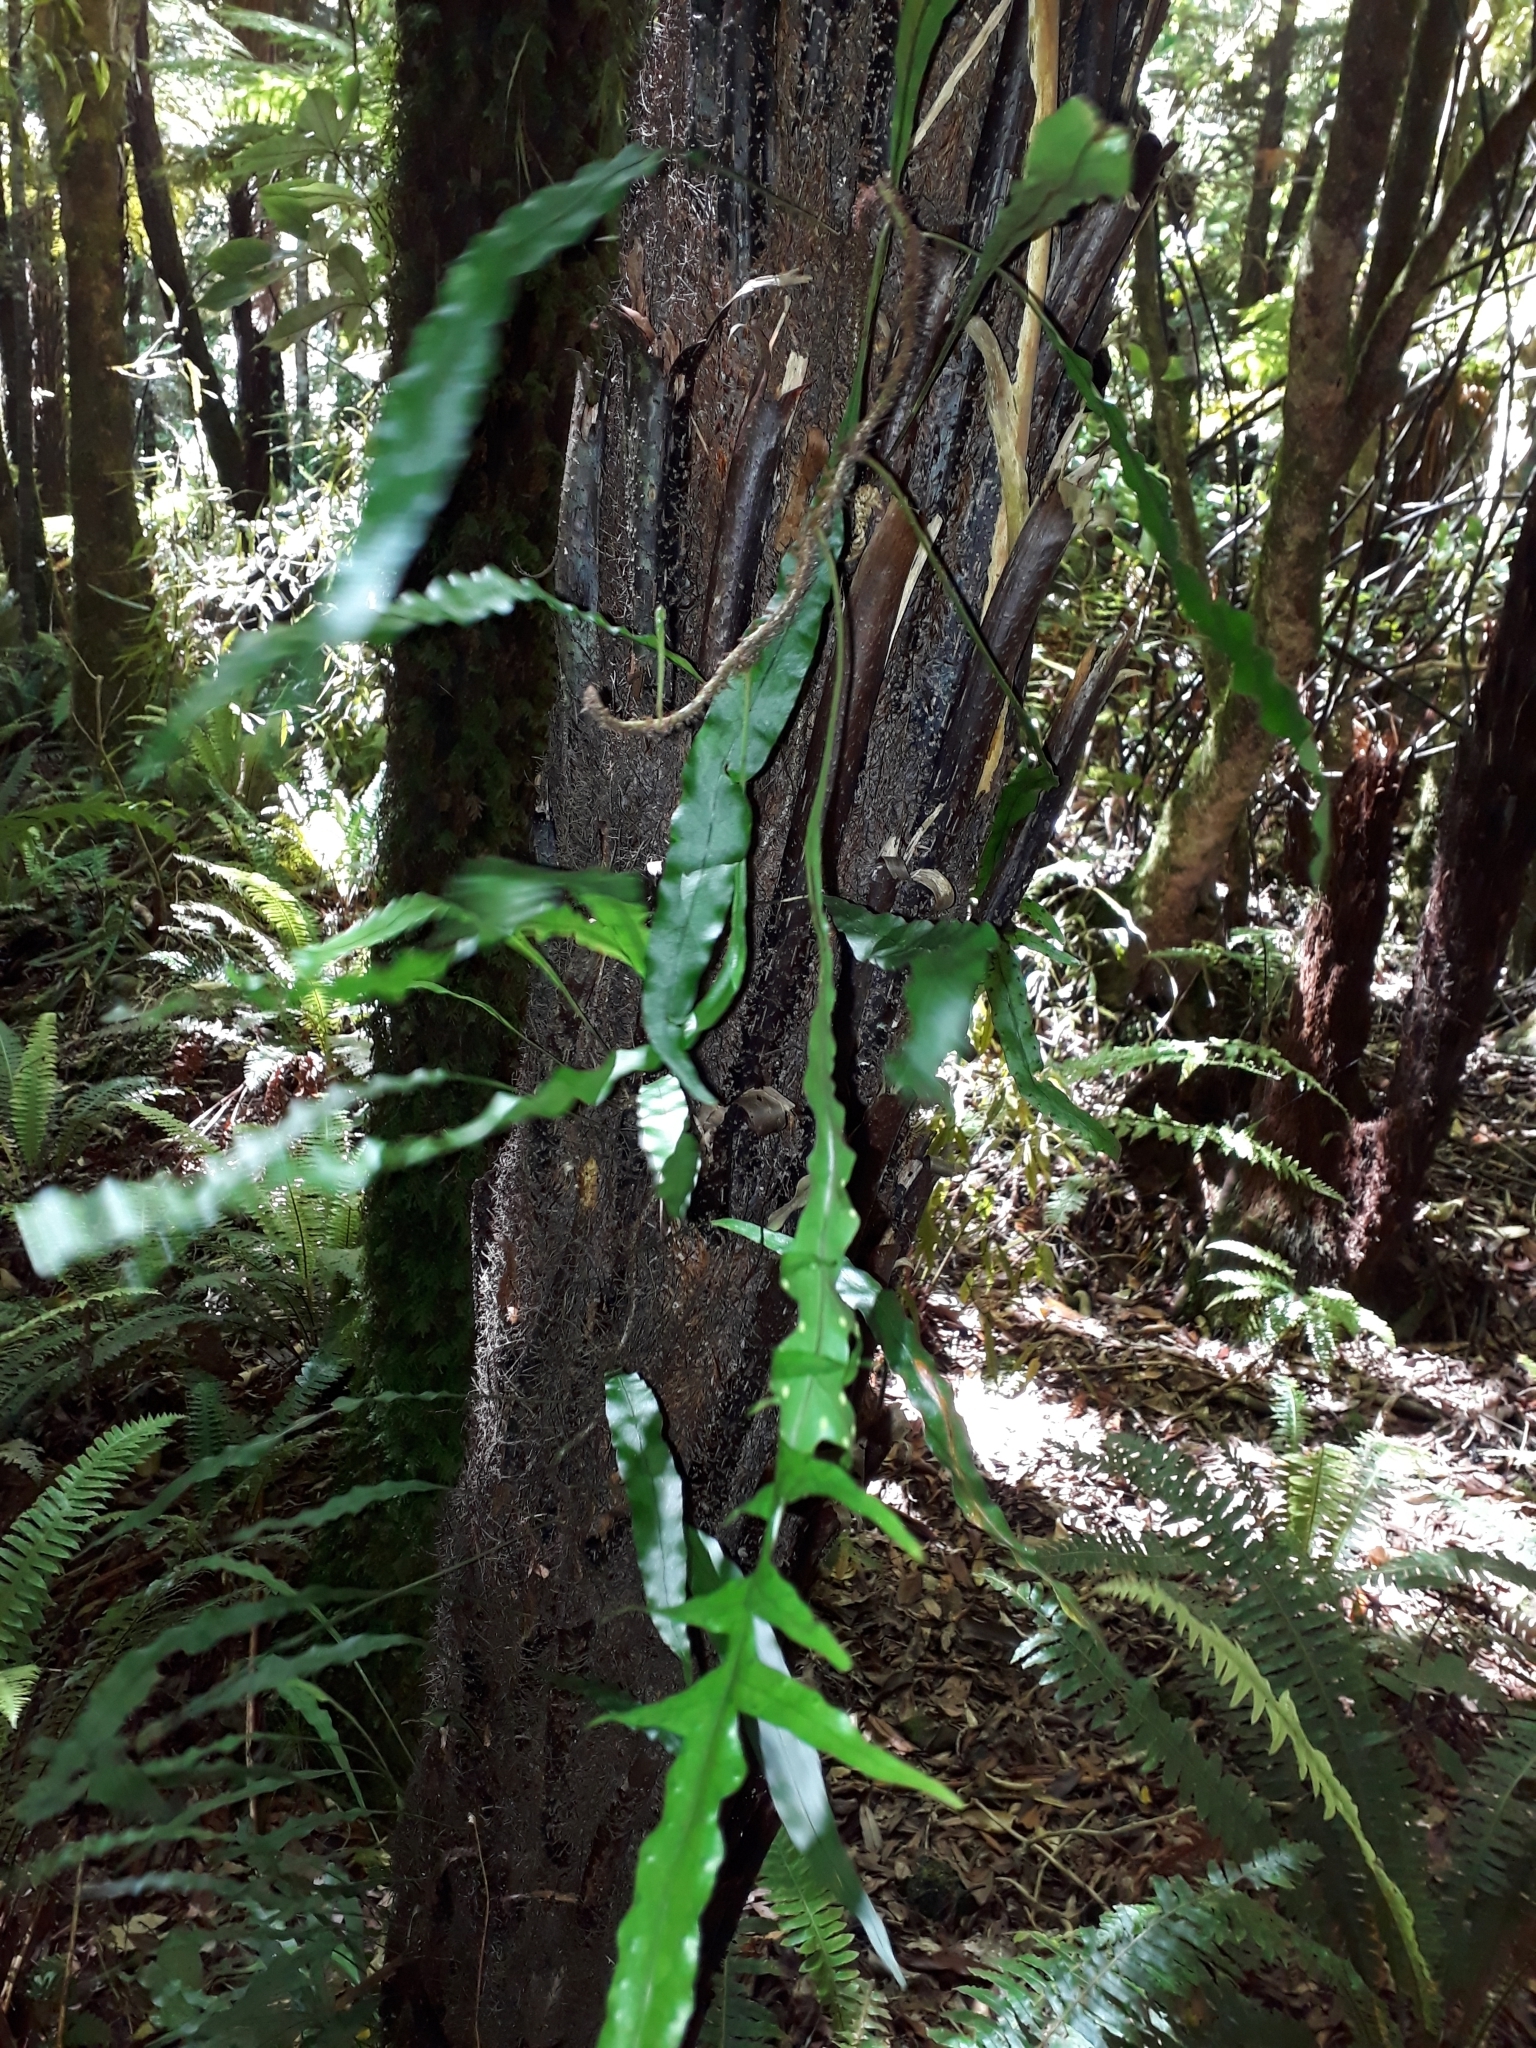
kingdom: Plantae
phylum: Tracheophyta
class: Polypodiopsida
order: Polypodiales
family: Polypodiaceae
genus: Lecanopteris
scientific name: Lecanopteris scandens
